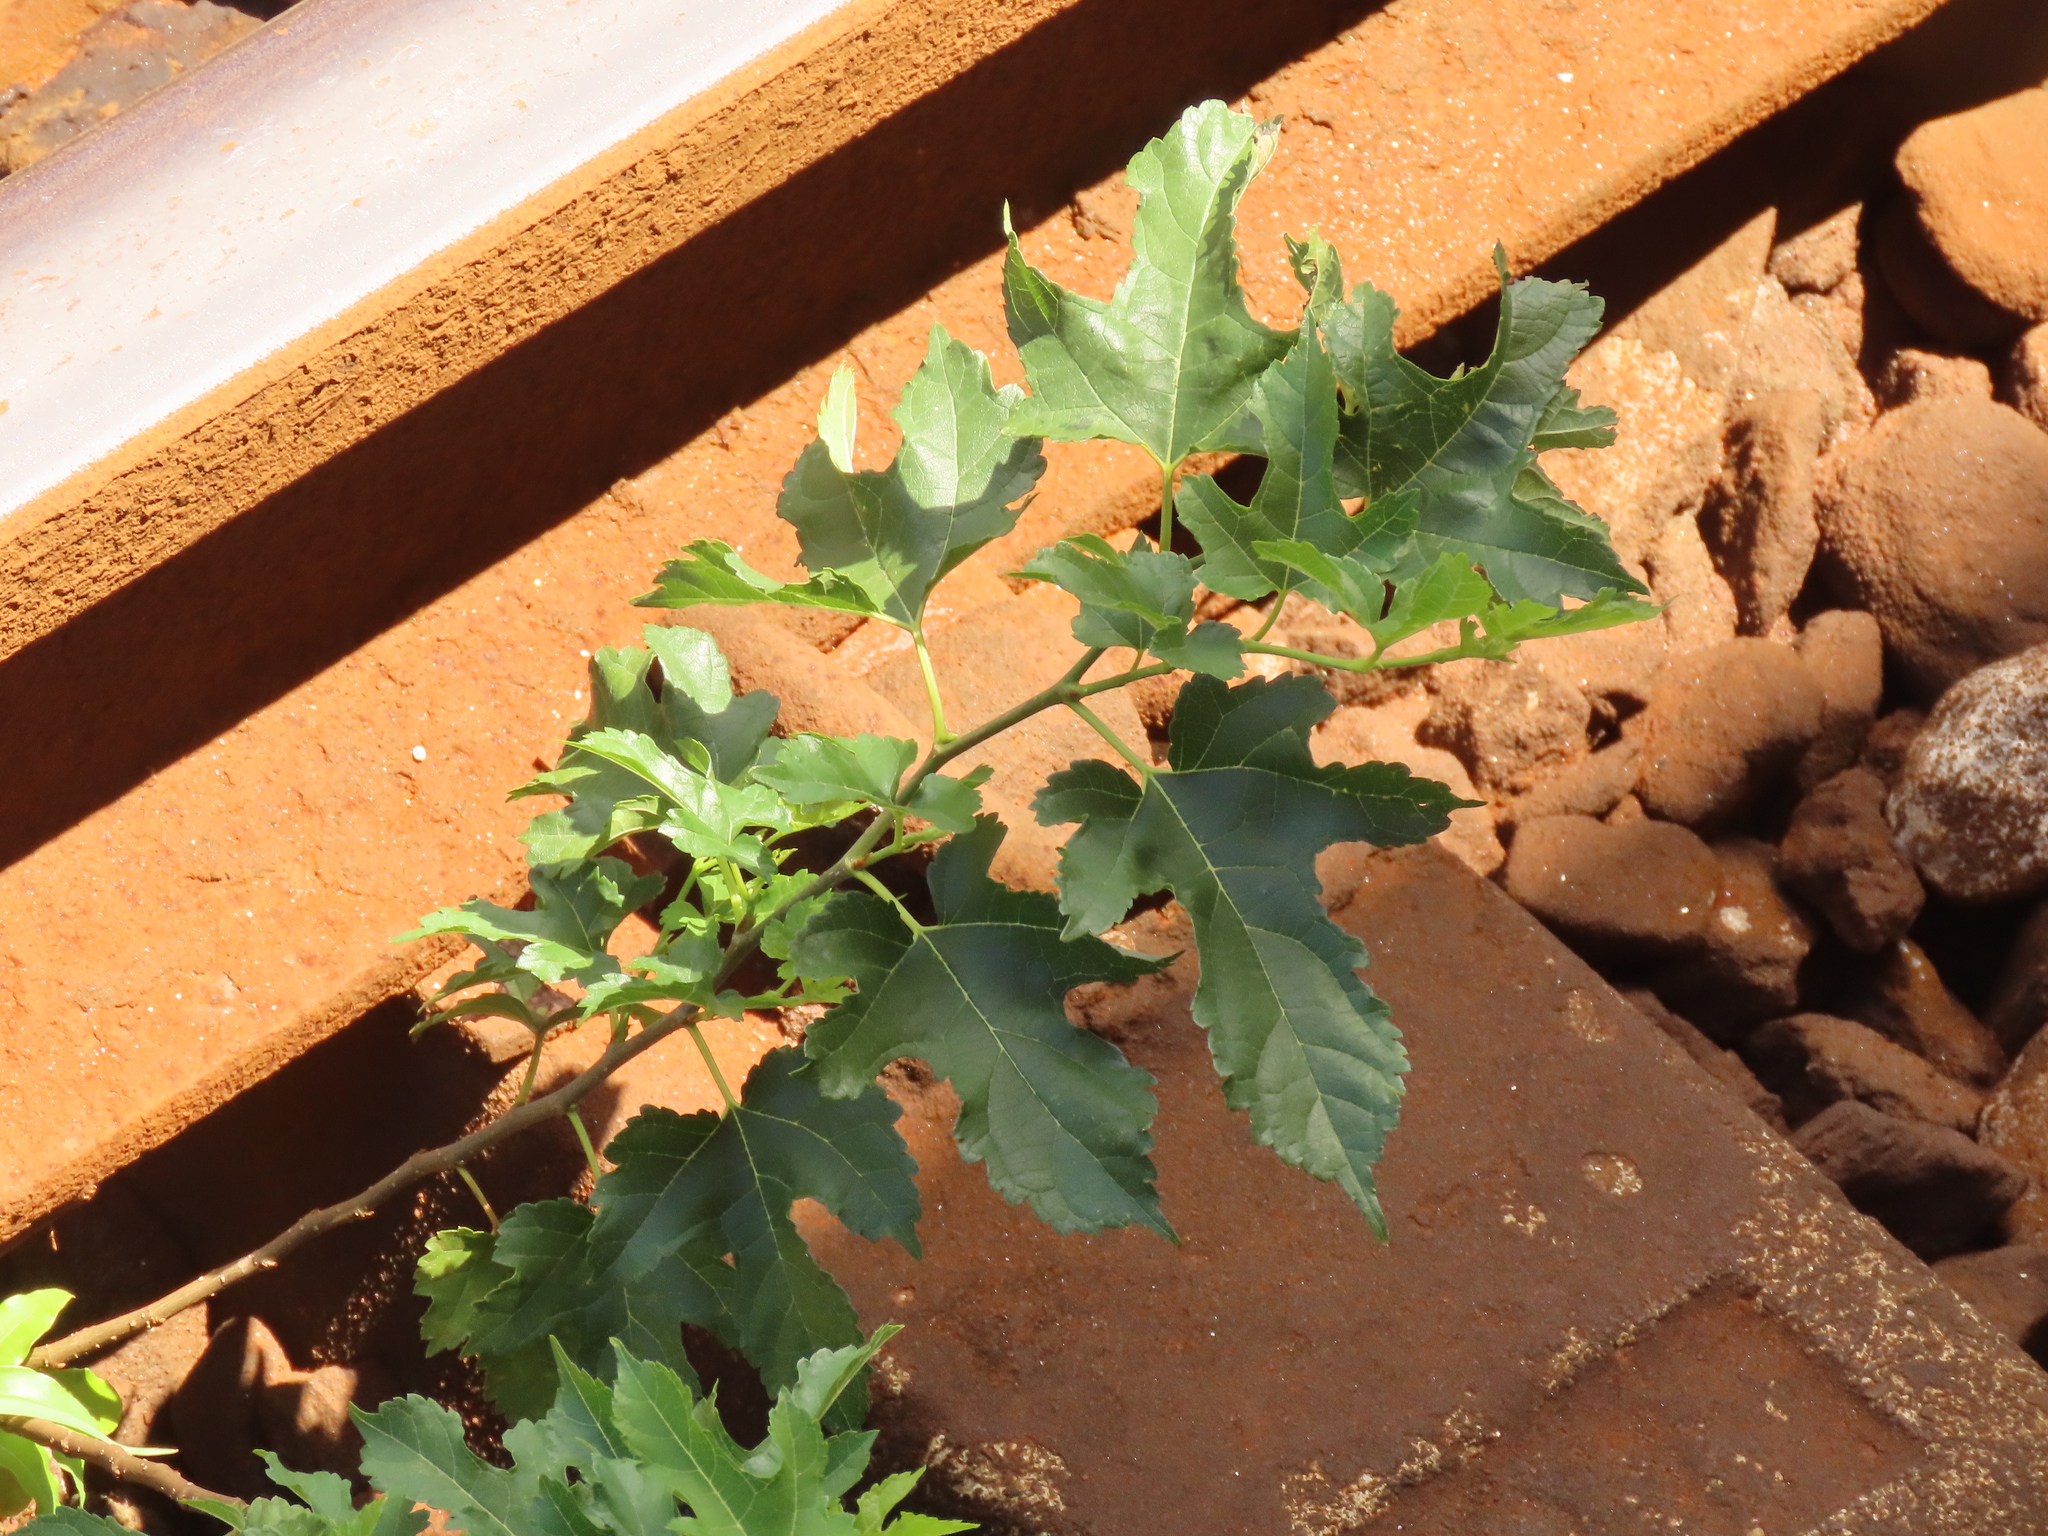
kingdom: Plantae
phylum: Tracheophyta
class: Magnoliopsida
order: Rosales
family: Moraceae
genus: Morus
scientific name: Morus indica
